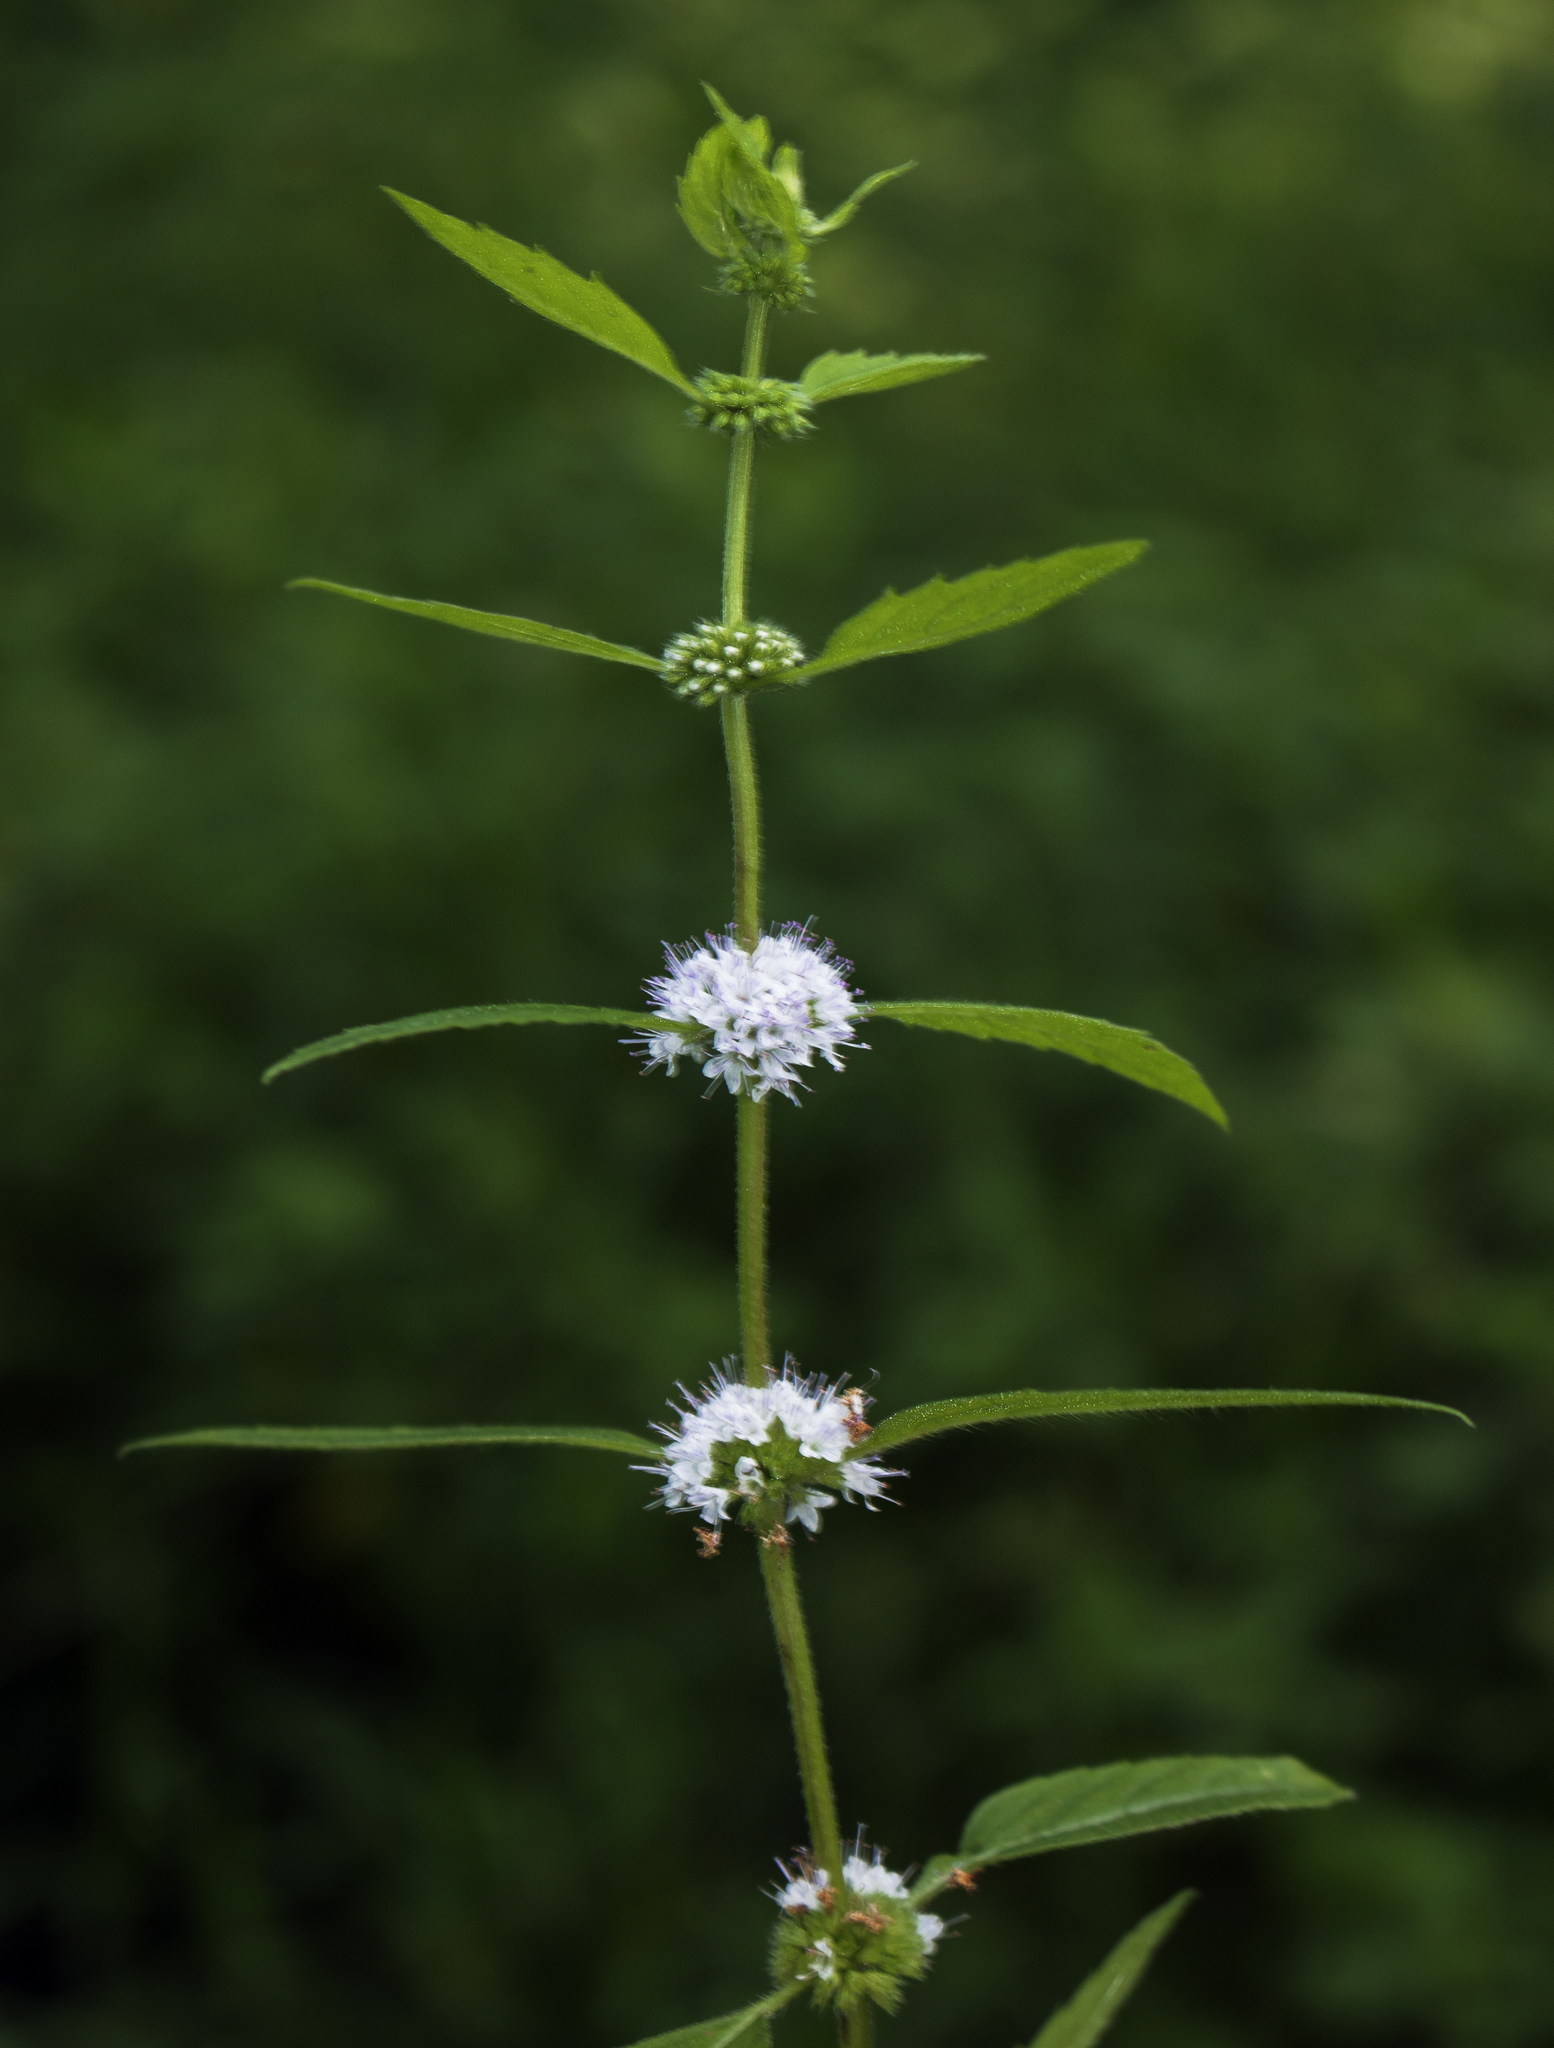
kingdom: Plantae
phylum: Tracheophyta
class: Magnoliopsida
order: Lamiales
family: Lamiaceae
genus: Mentha
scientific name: Mentha canadensis
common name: American corn mint
